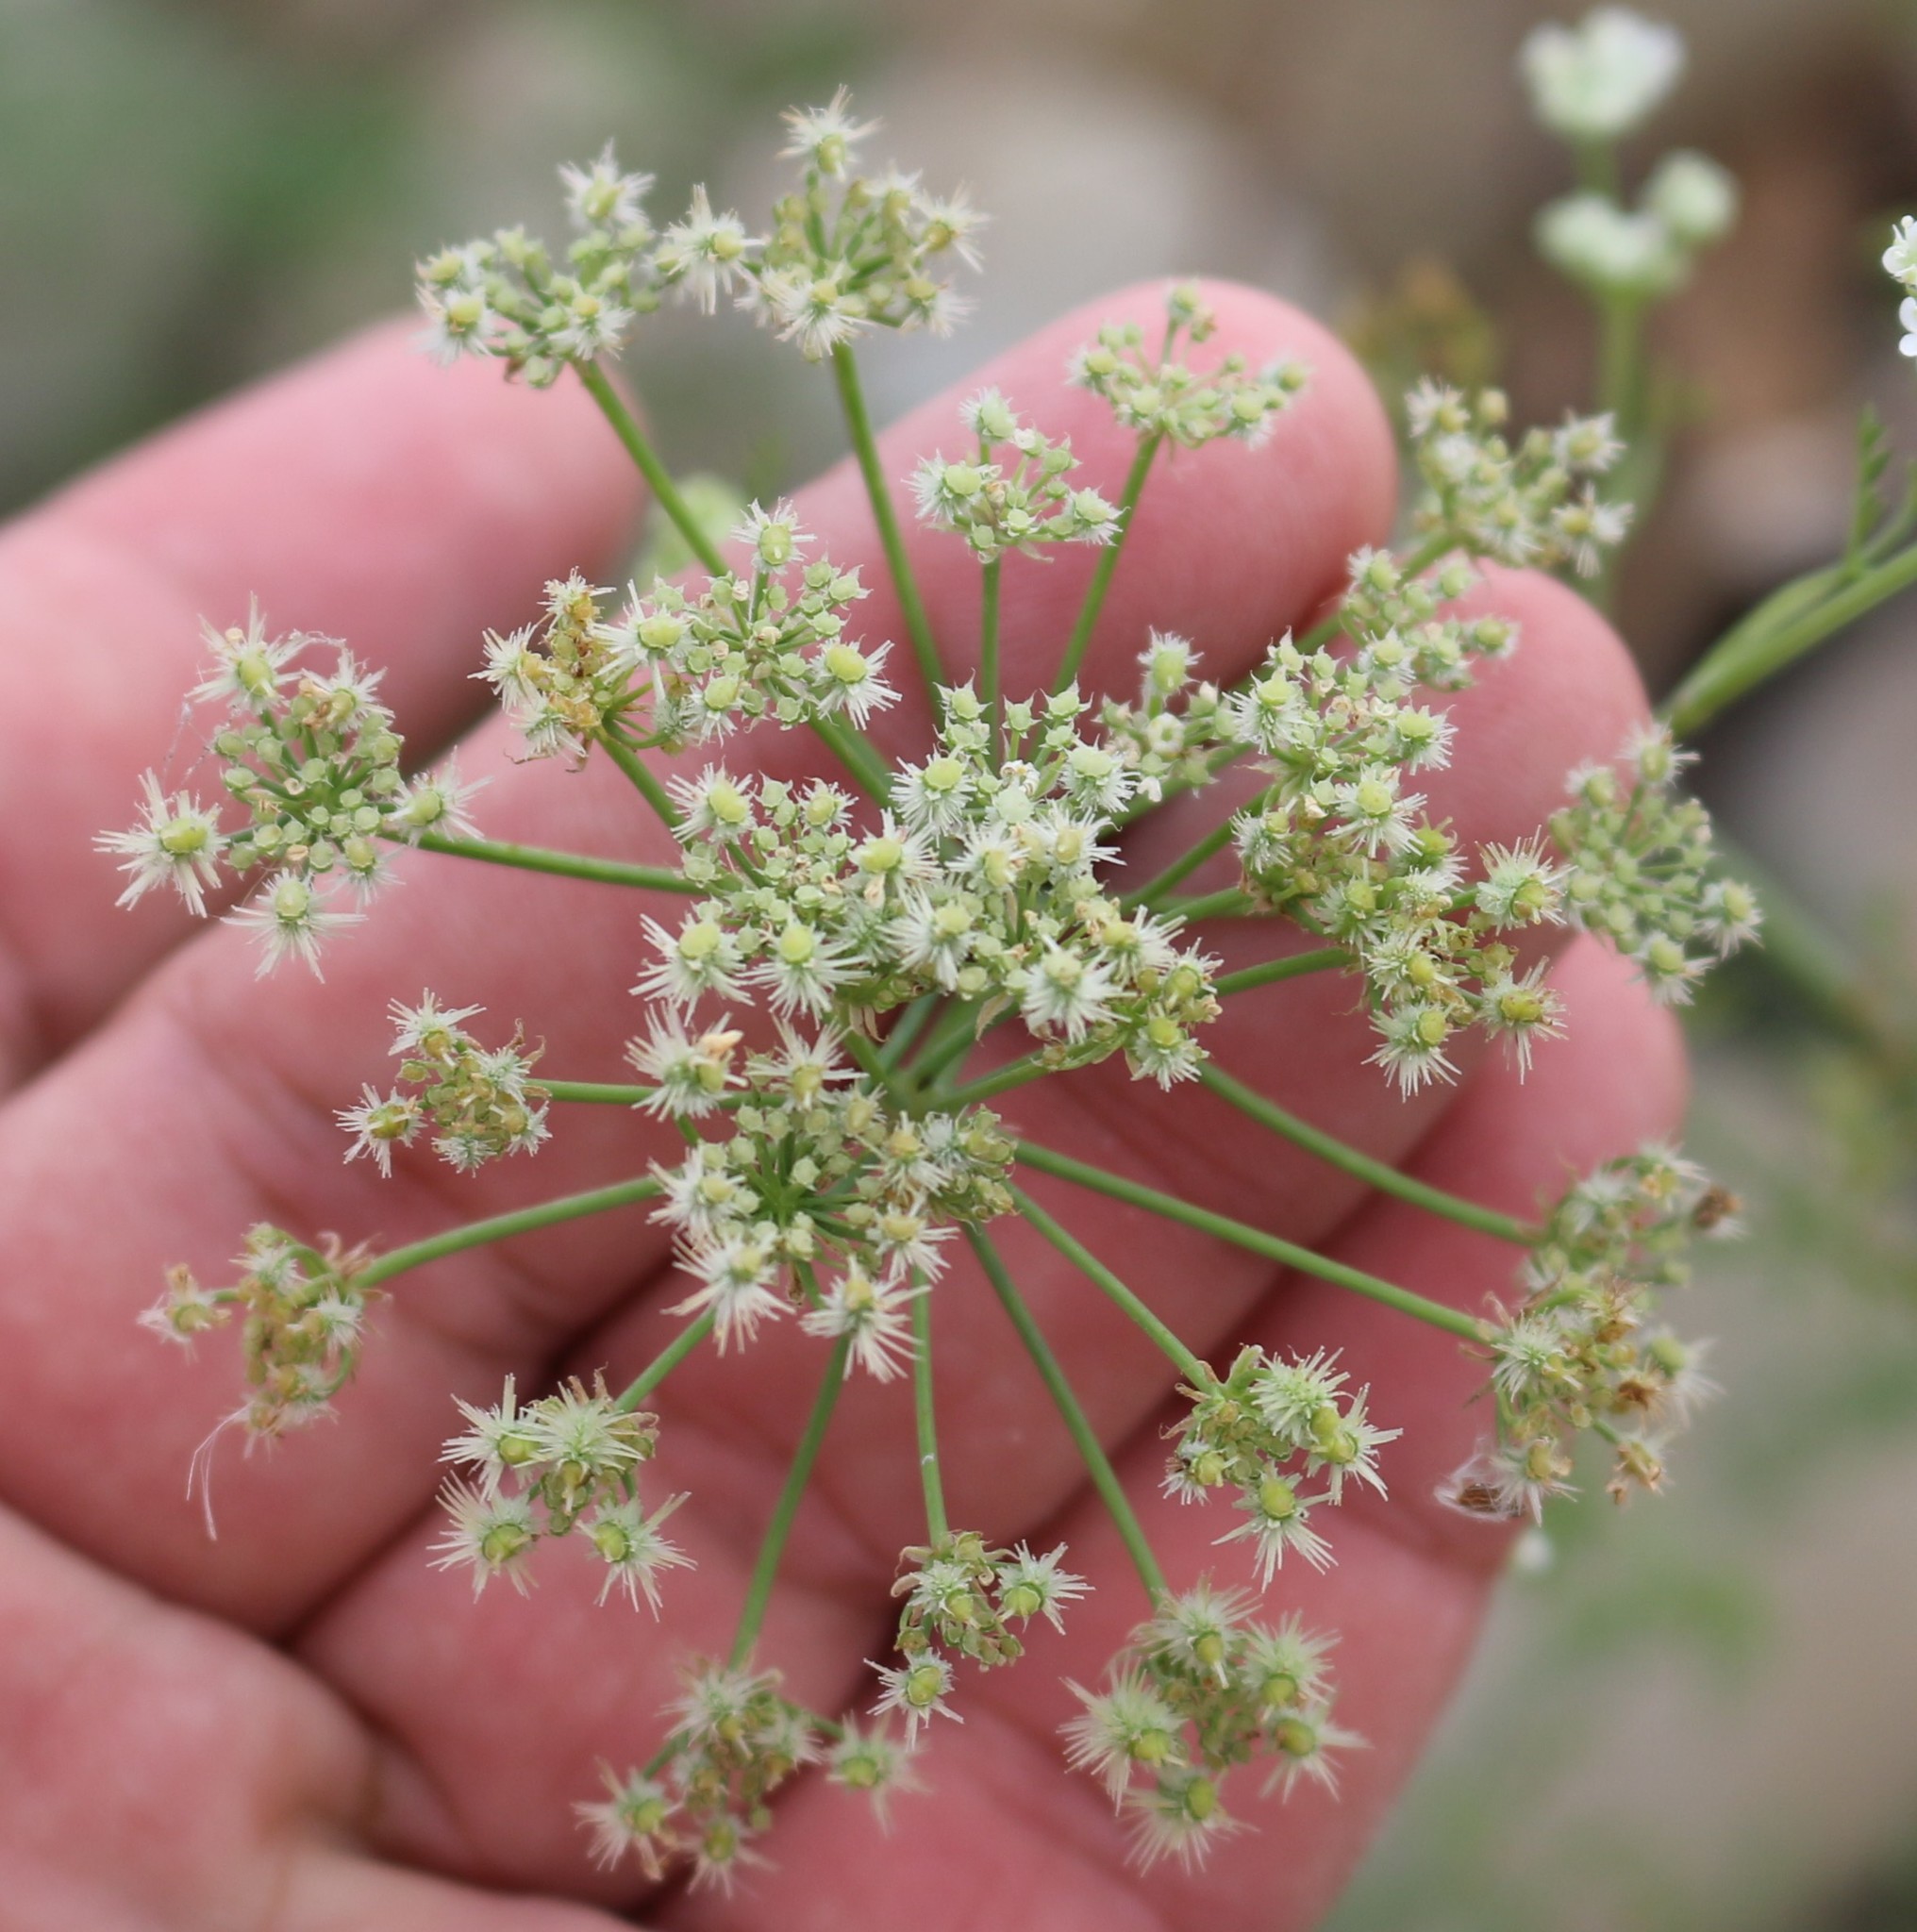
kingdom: Plantae
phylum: Tracheophyta
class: Magnoliopsida
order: Apiales
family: Apiaceae
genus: Astrodaucus
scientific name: Astrodaucus littoralis
